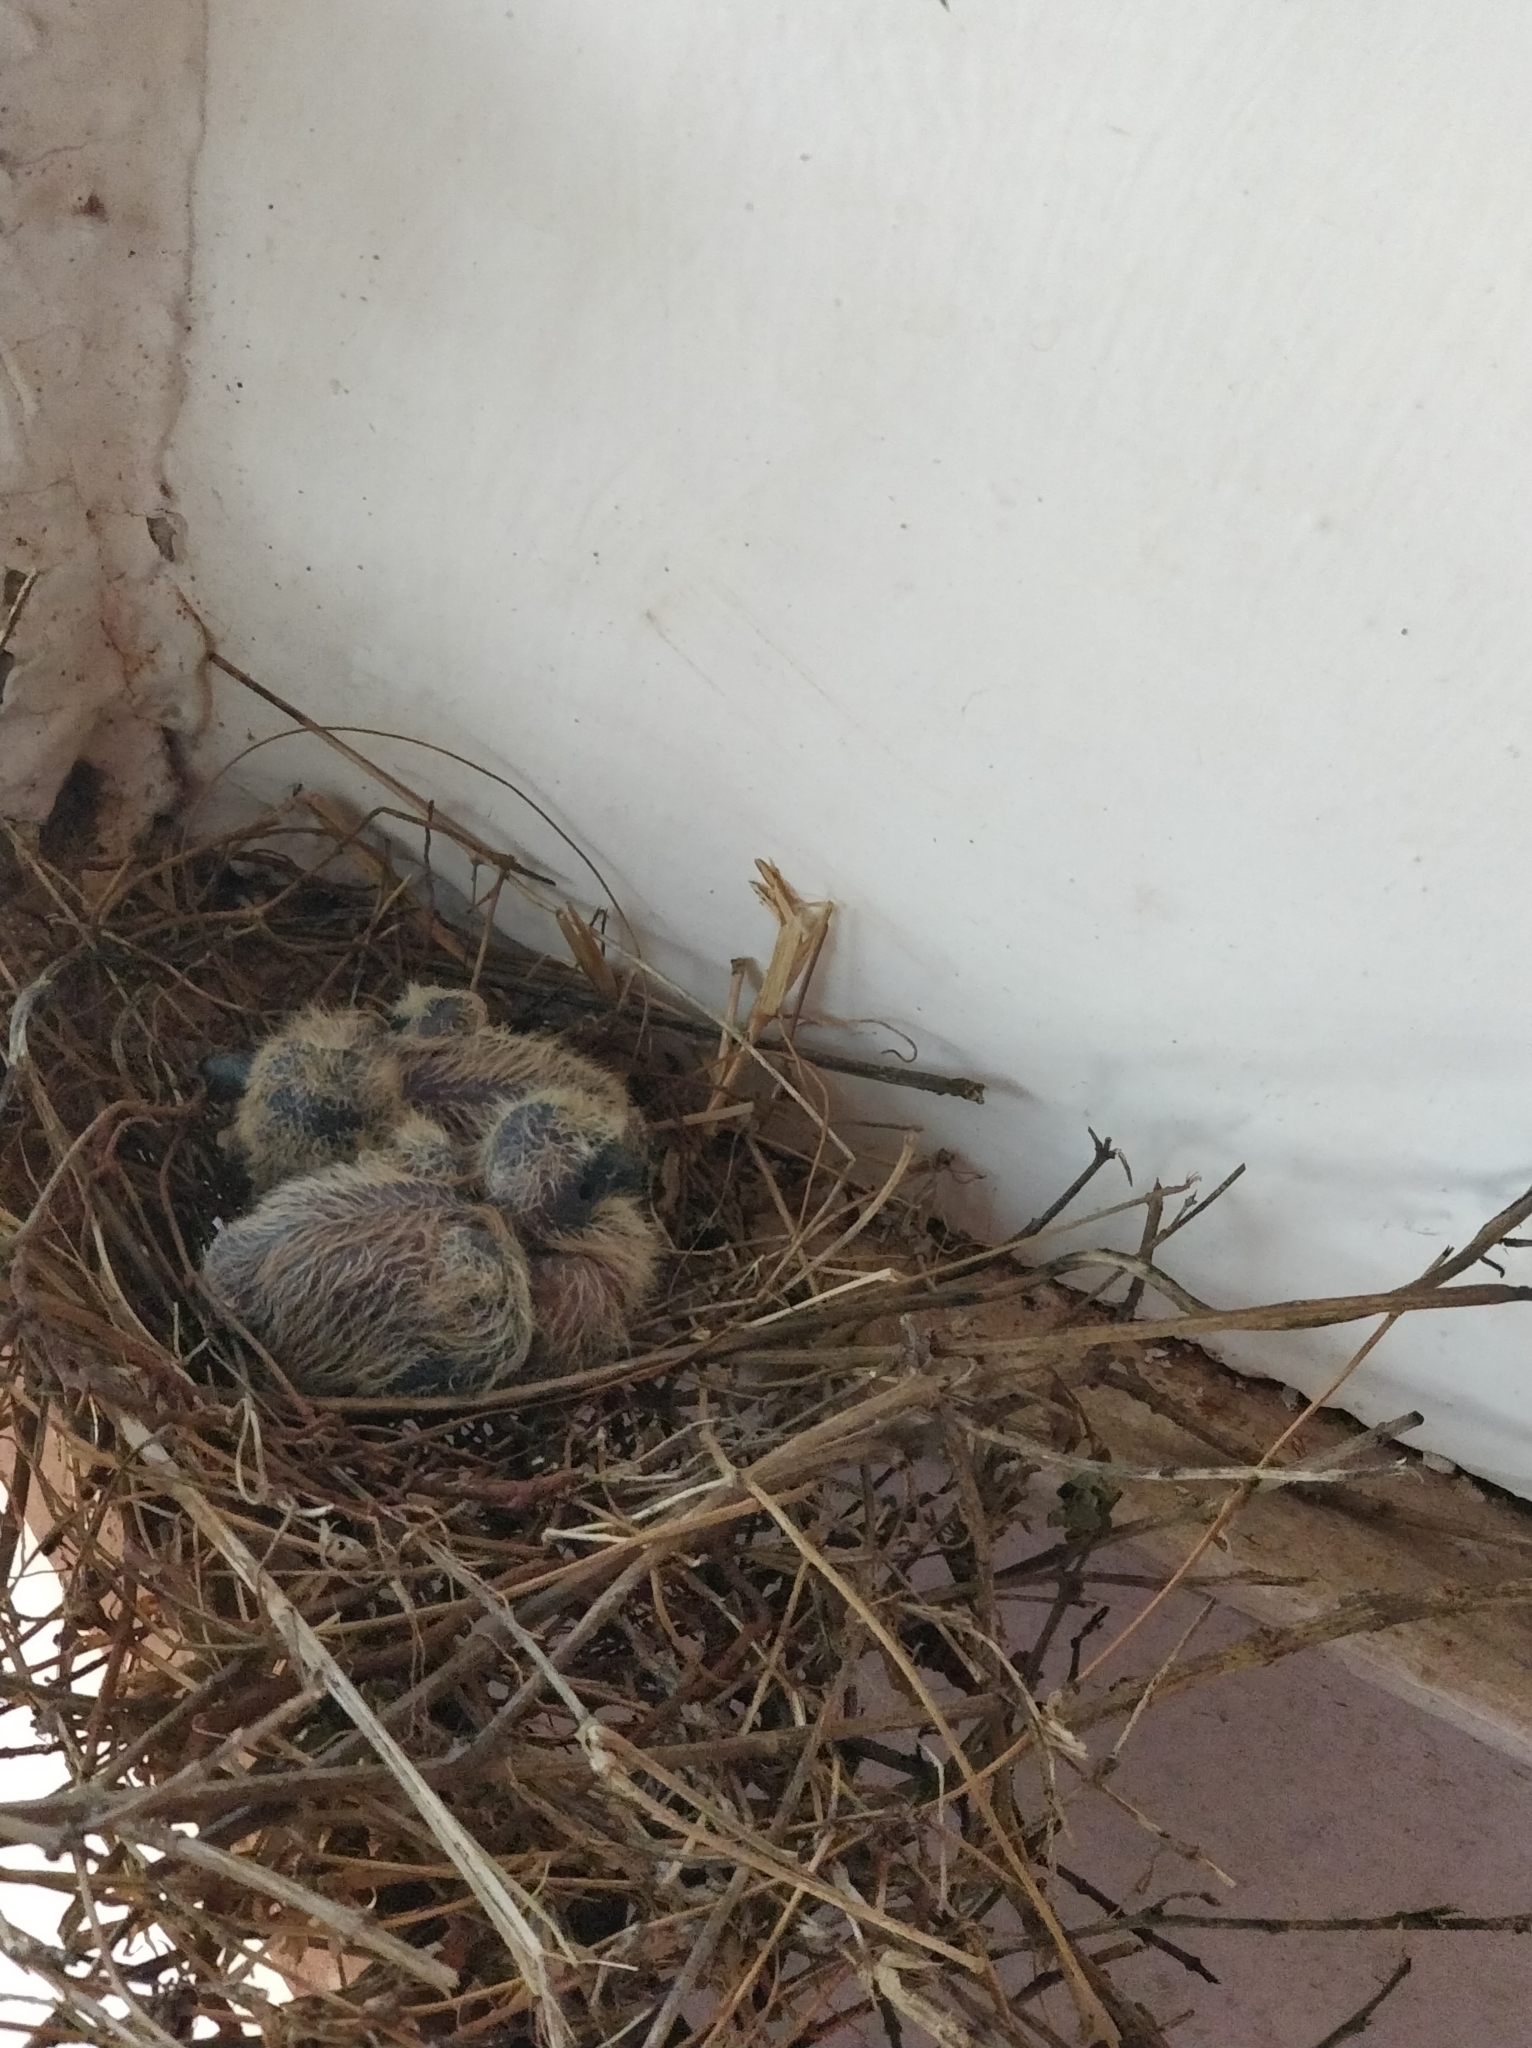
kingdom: Animalia
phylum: Chordata
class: Aves
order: Columbiformes
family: Columbidae
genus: Spilopelia
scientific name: Spilopelia chinensis
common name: Spotted dove
